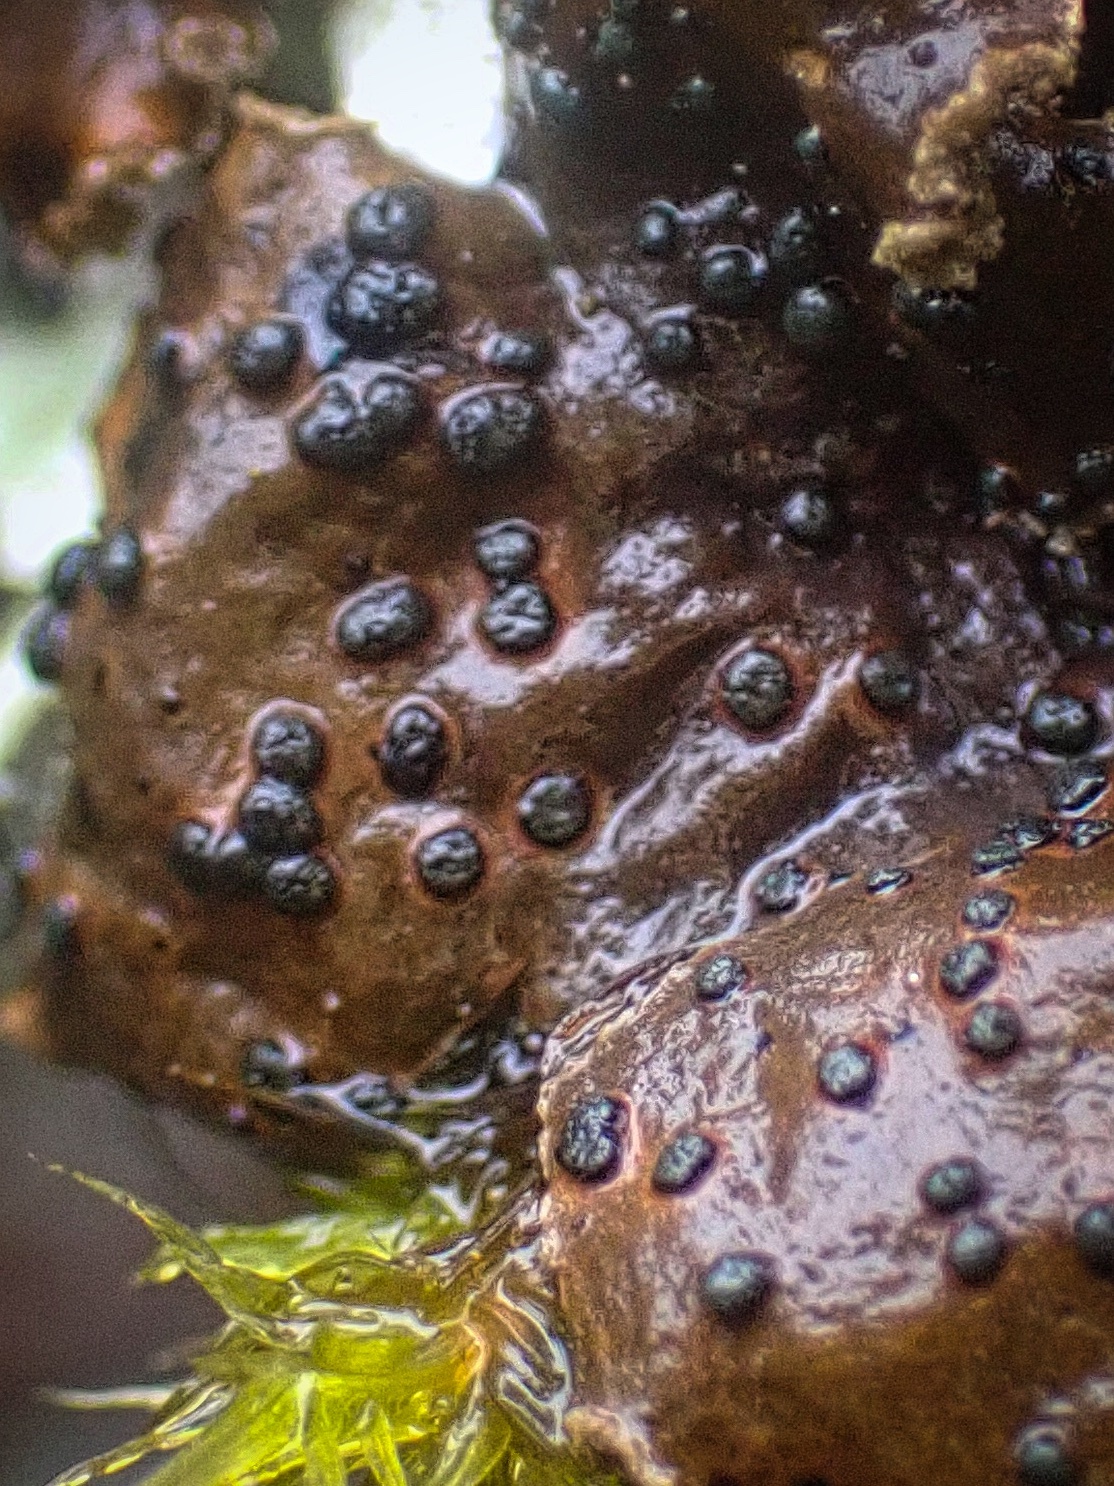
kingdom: Fungi
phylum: Ascomycota
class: Dothideomycetes
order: Abrothallales
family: Abrothallaceae
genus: Abrothallus
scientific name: Abrothallus welwitschii
